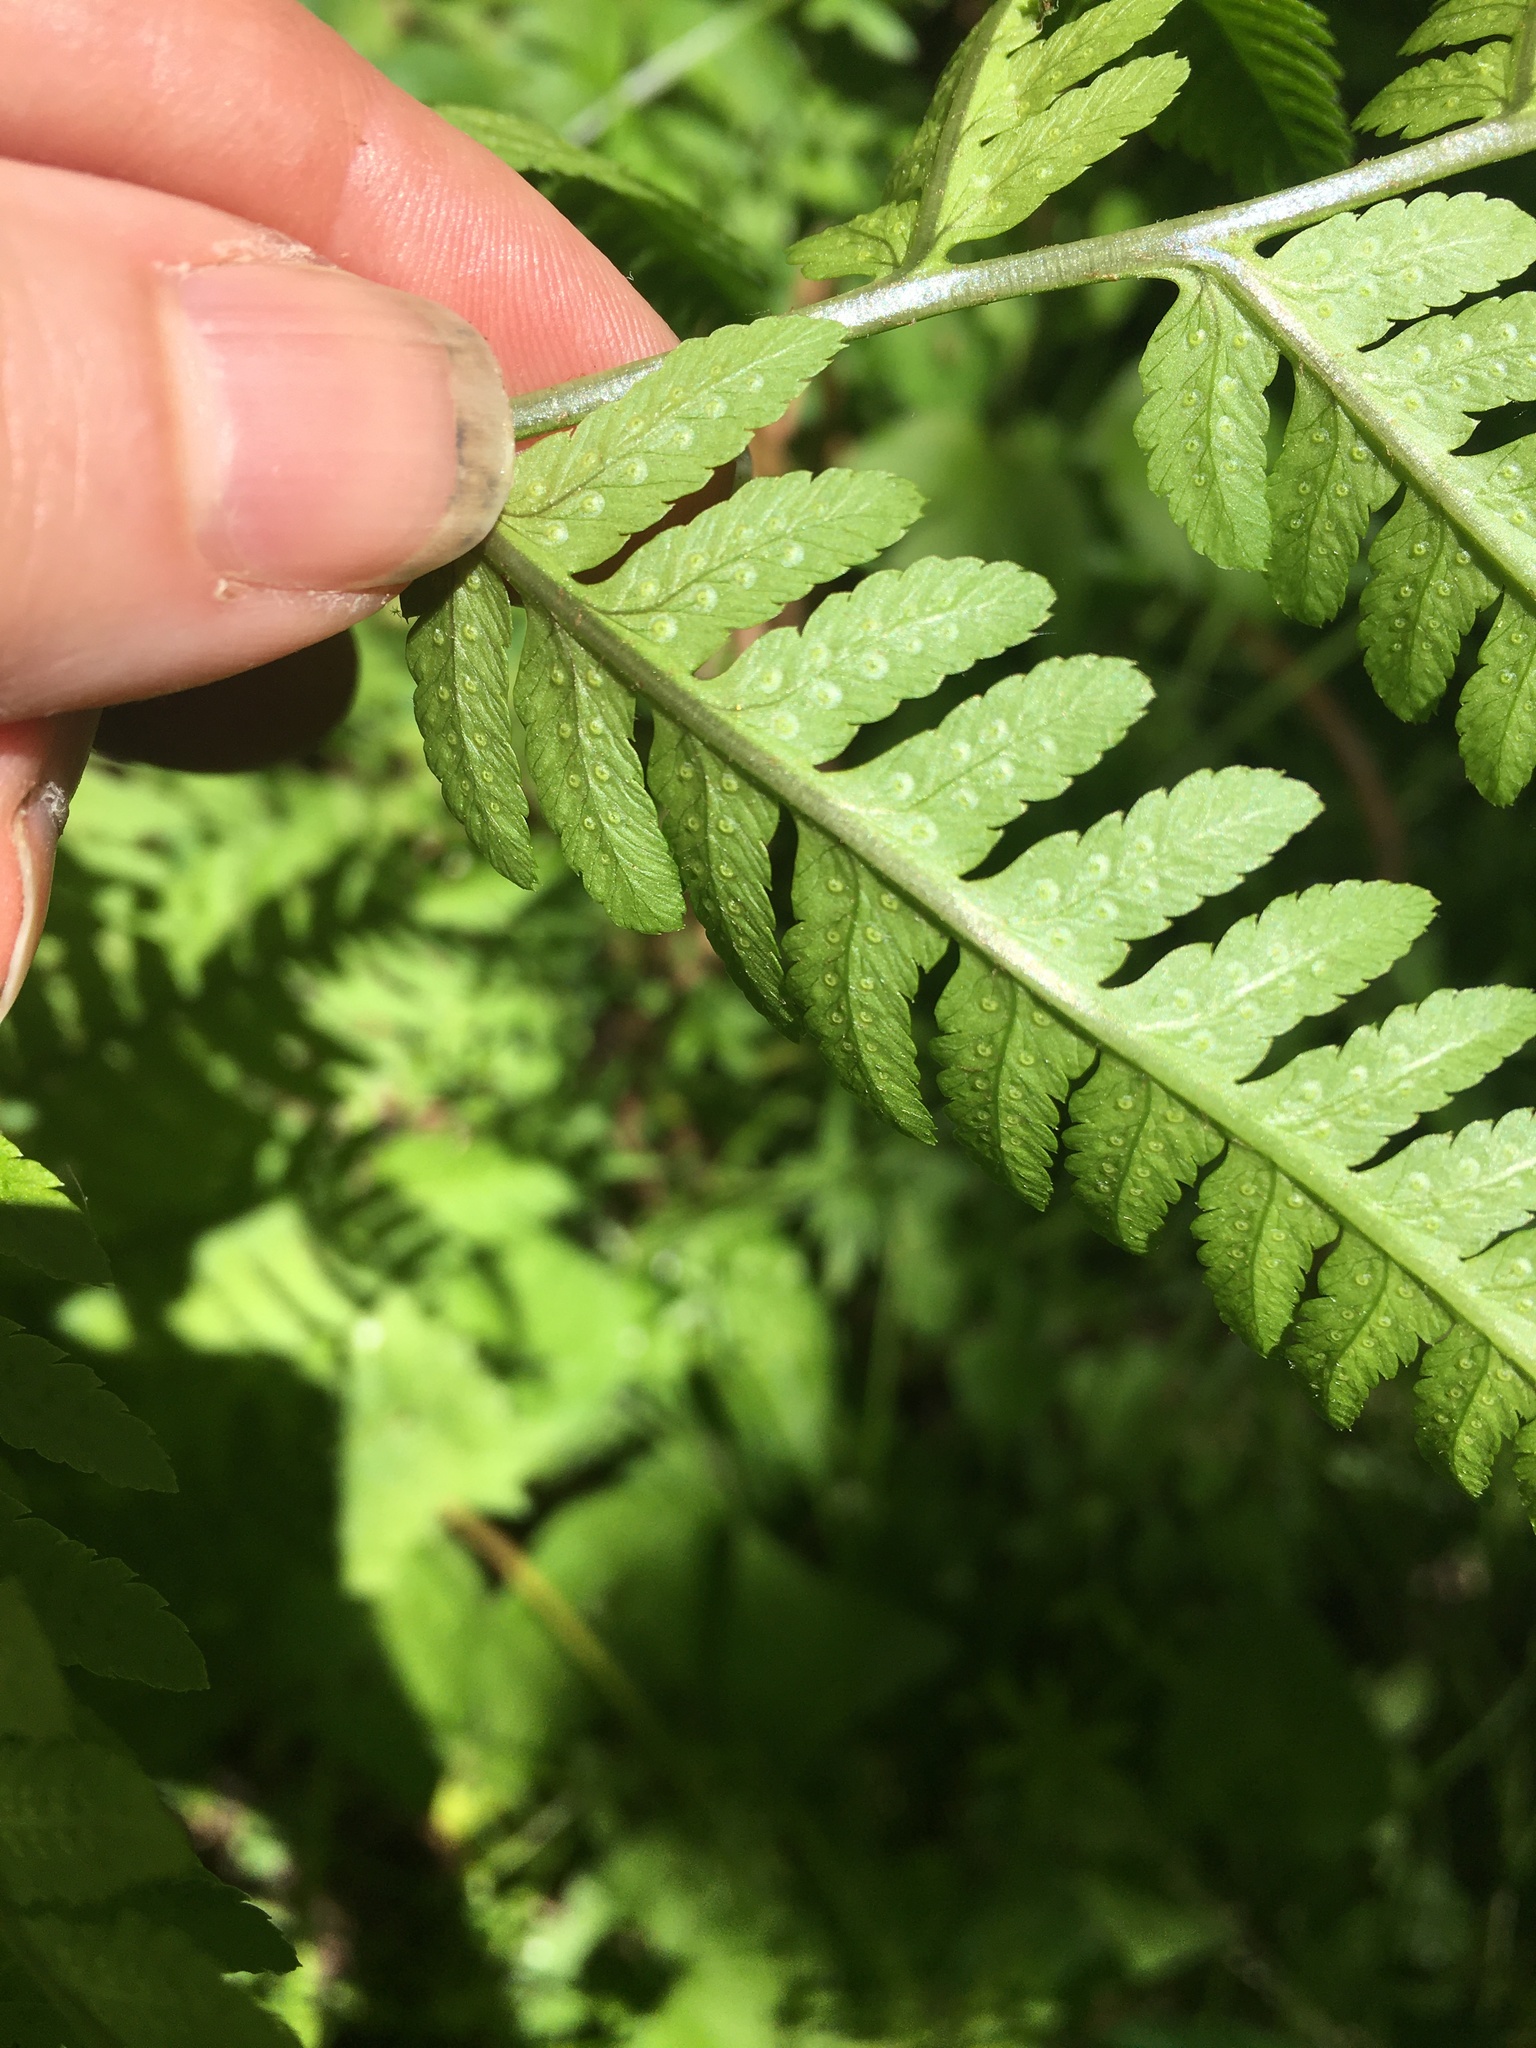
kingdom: Plantae
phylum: Tracheophyta
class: Polypodiopsida
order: Polypodiales
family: Dryopteridaceae
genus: Dryopteris
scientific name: Dryopteris goldieana
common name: Goldie's fern
